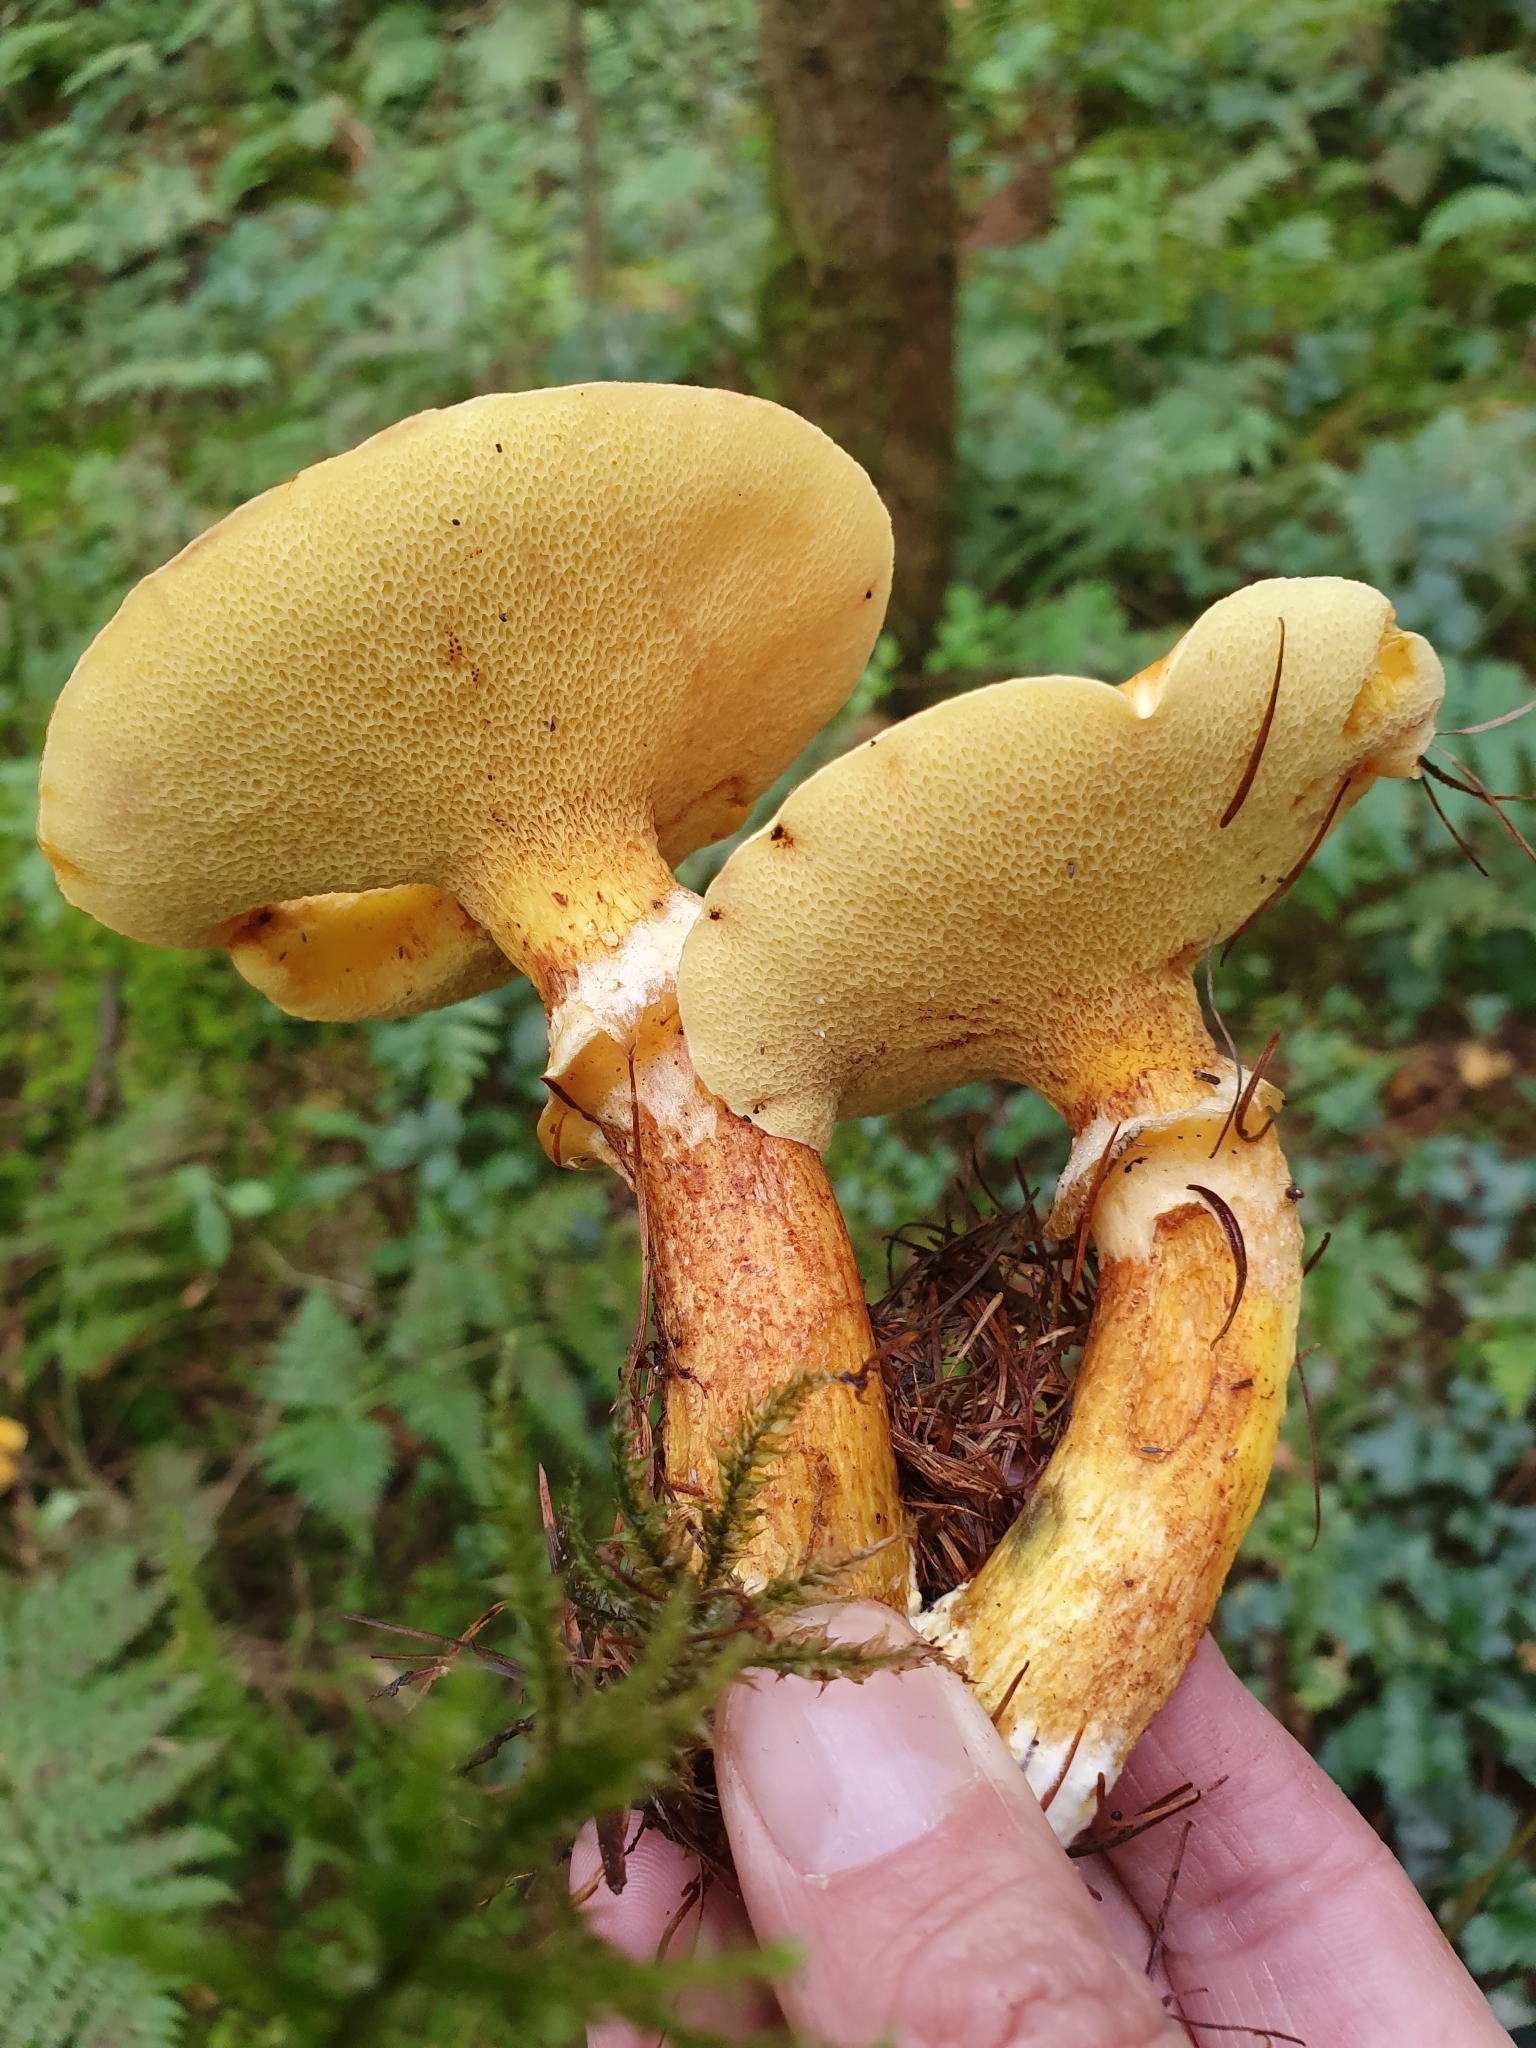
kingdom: Fungi
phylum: Basidiomycota
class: Agaricomycetes
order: Boletales
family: Suillaceae
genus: Suillus
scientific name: Suillus grevillei
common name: Larch bolete
